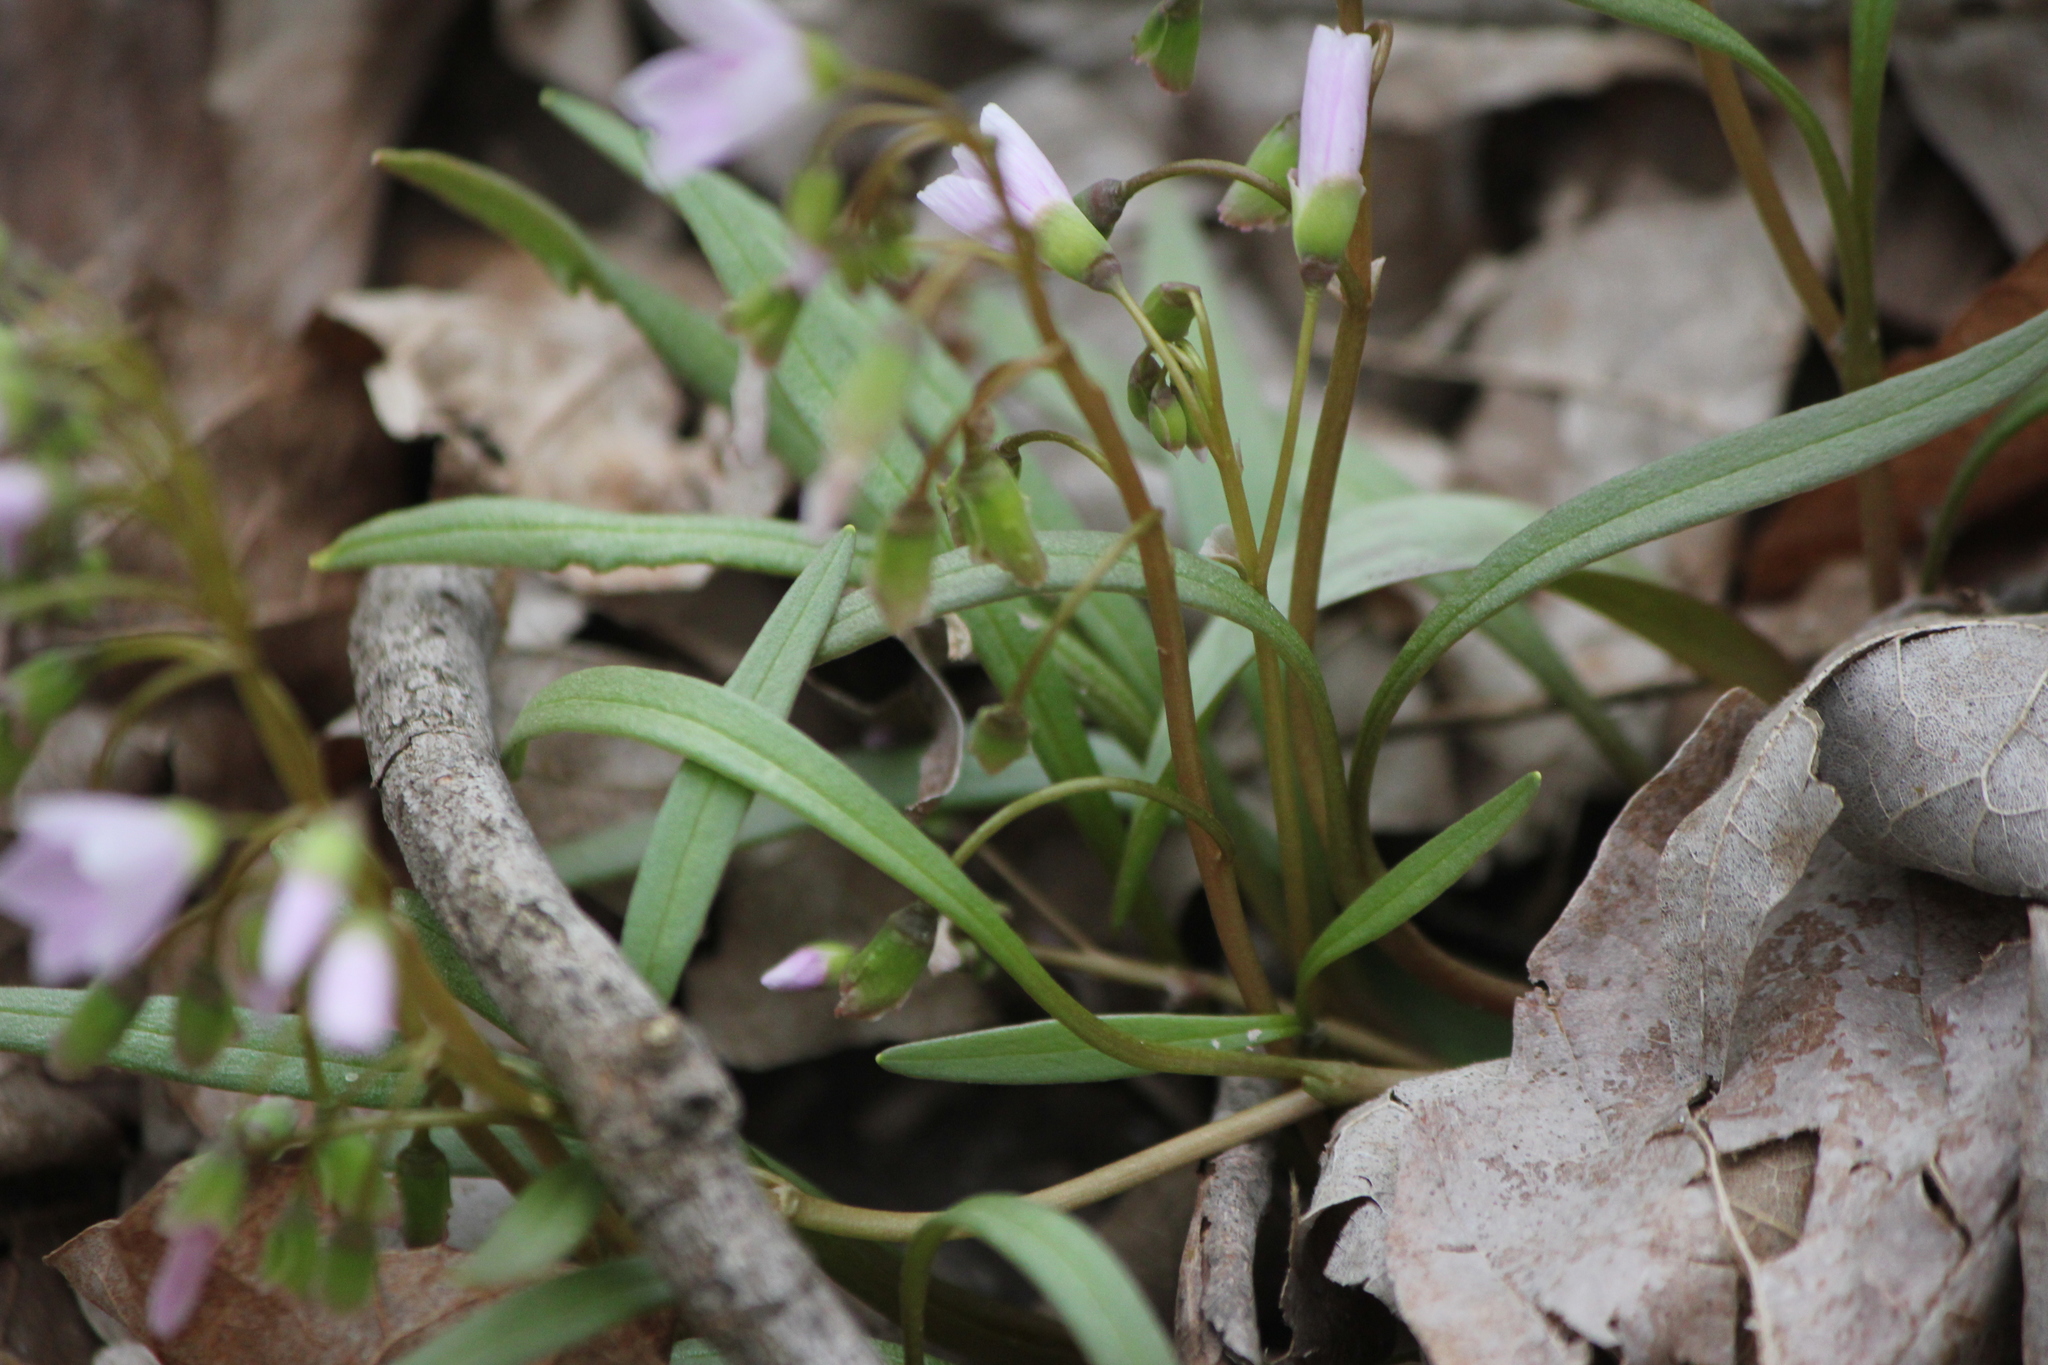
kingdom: Plantae
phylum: Tracheophyta
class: Magnoliopsida
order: Caryophyllales
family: Montiaceae
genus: Claytonia
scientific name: Claytonia virginica
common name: Virginia springbeauty
